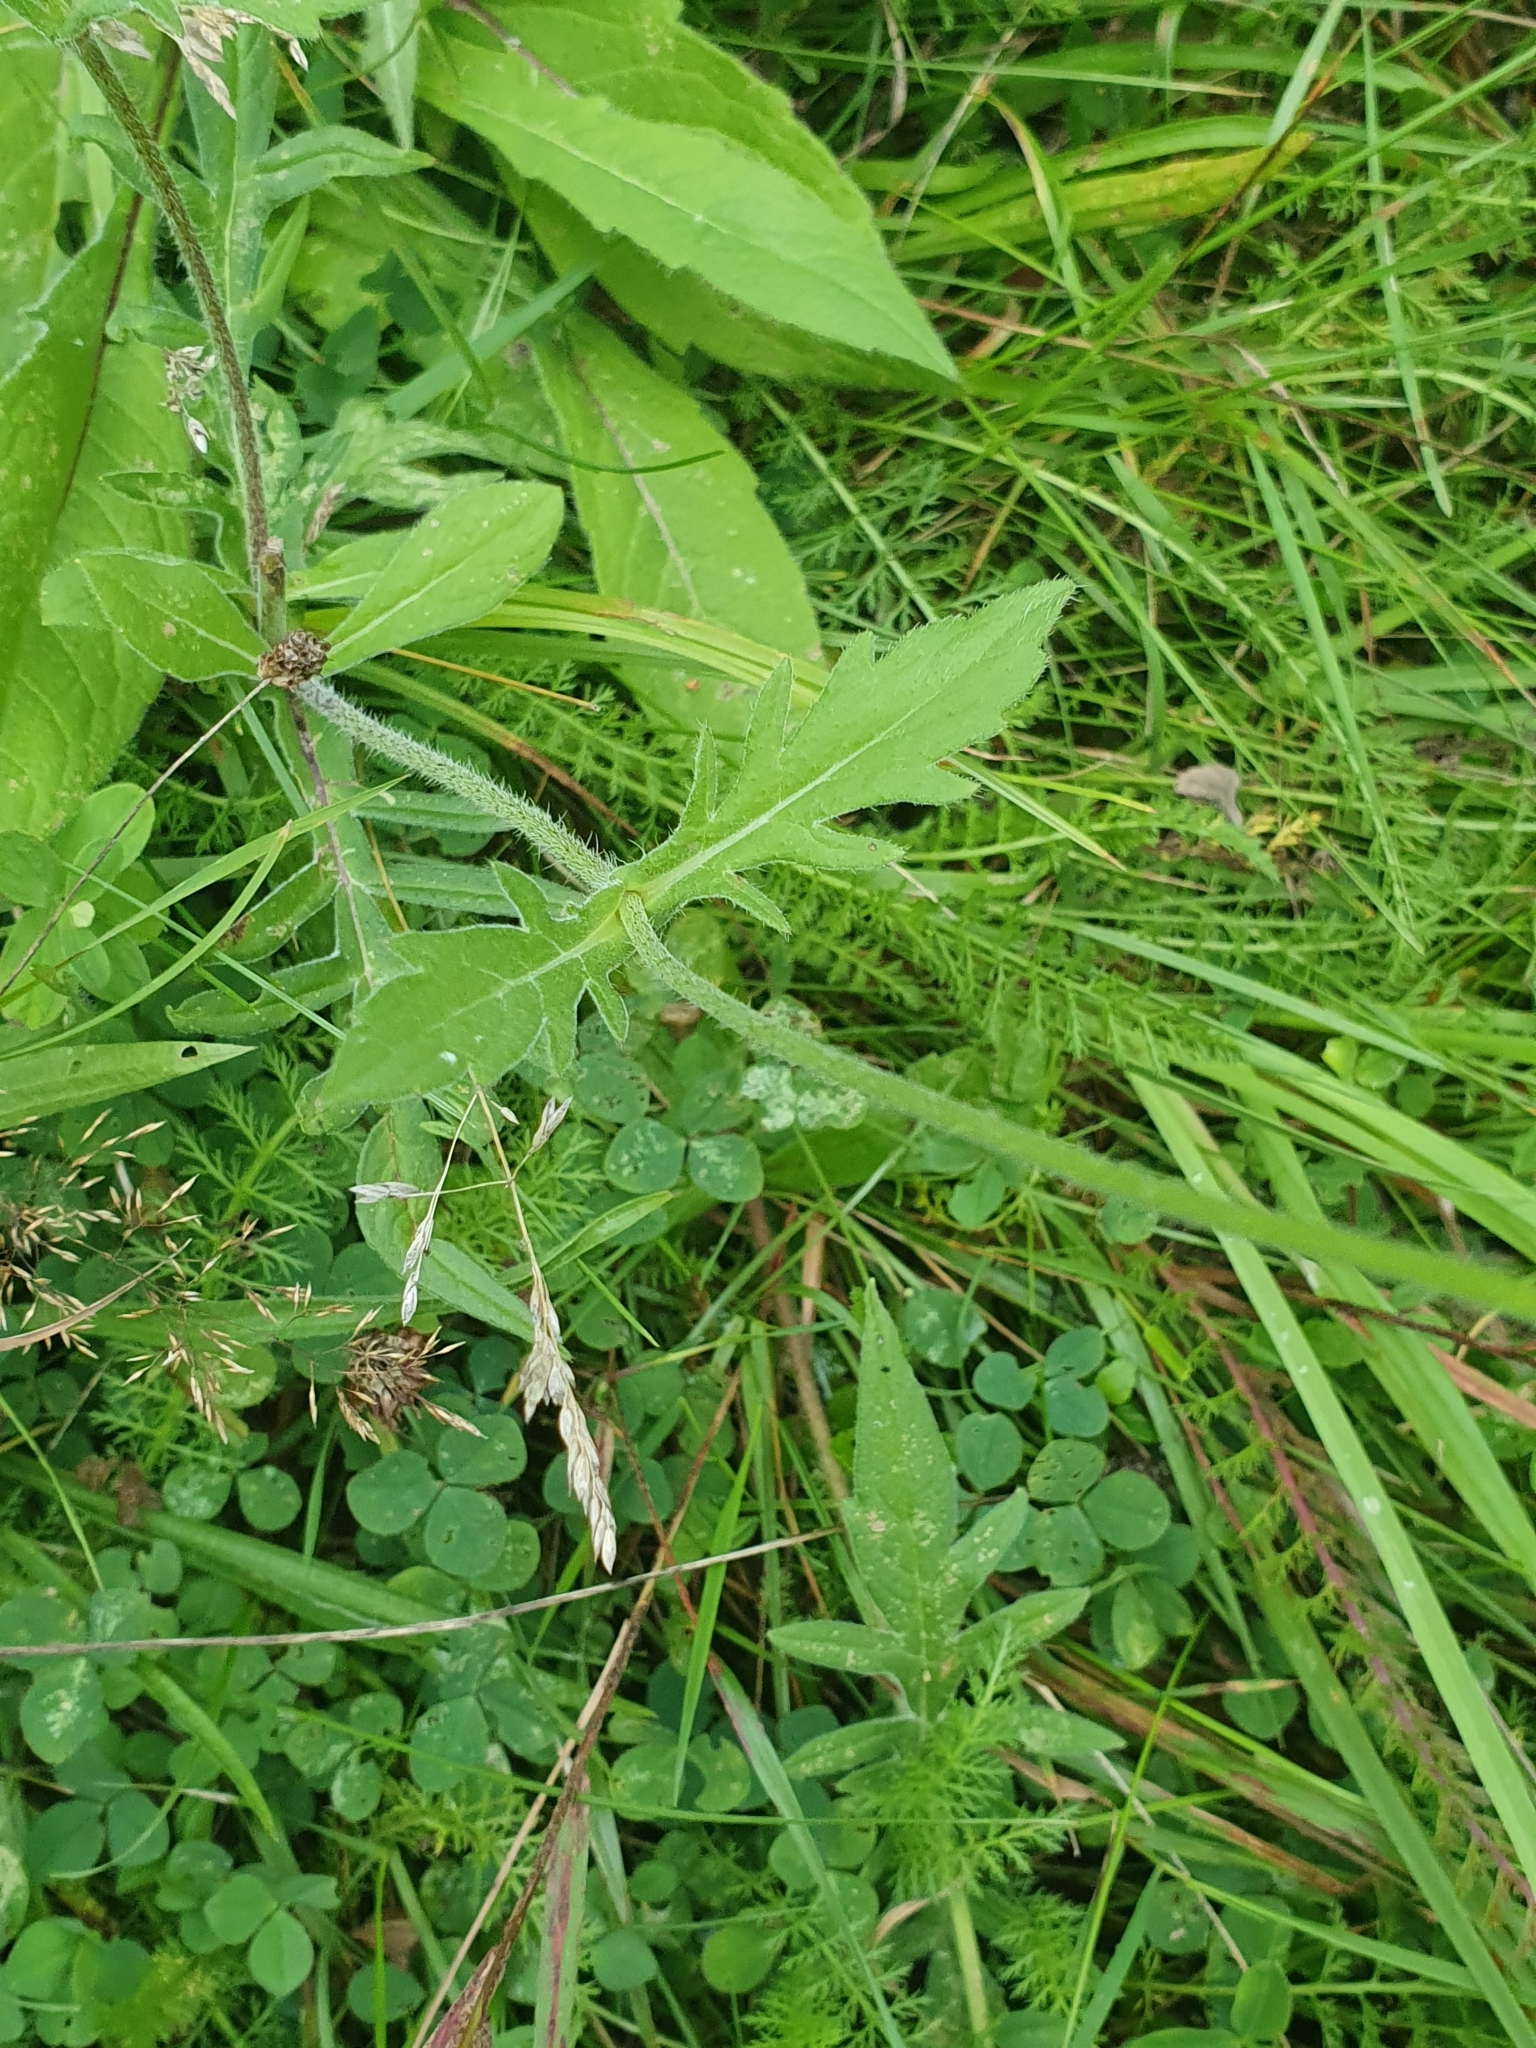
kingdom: Plantae
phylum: Tracheophyta
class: Magnoliopsida
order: Dipsacales
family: Caprifoliaceae
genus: Knautia
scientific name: Knautia arvensis
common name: Field scabiosa
